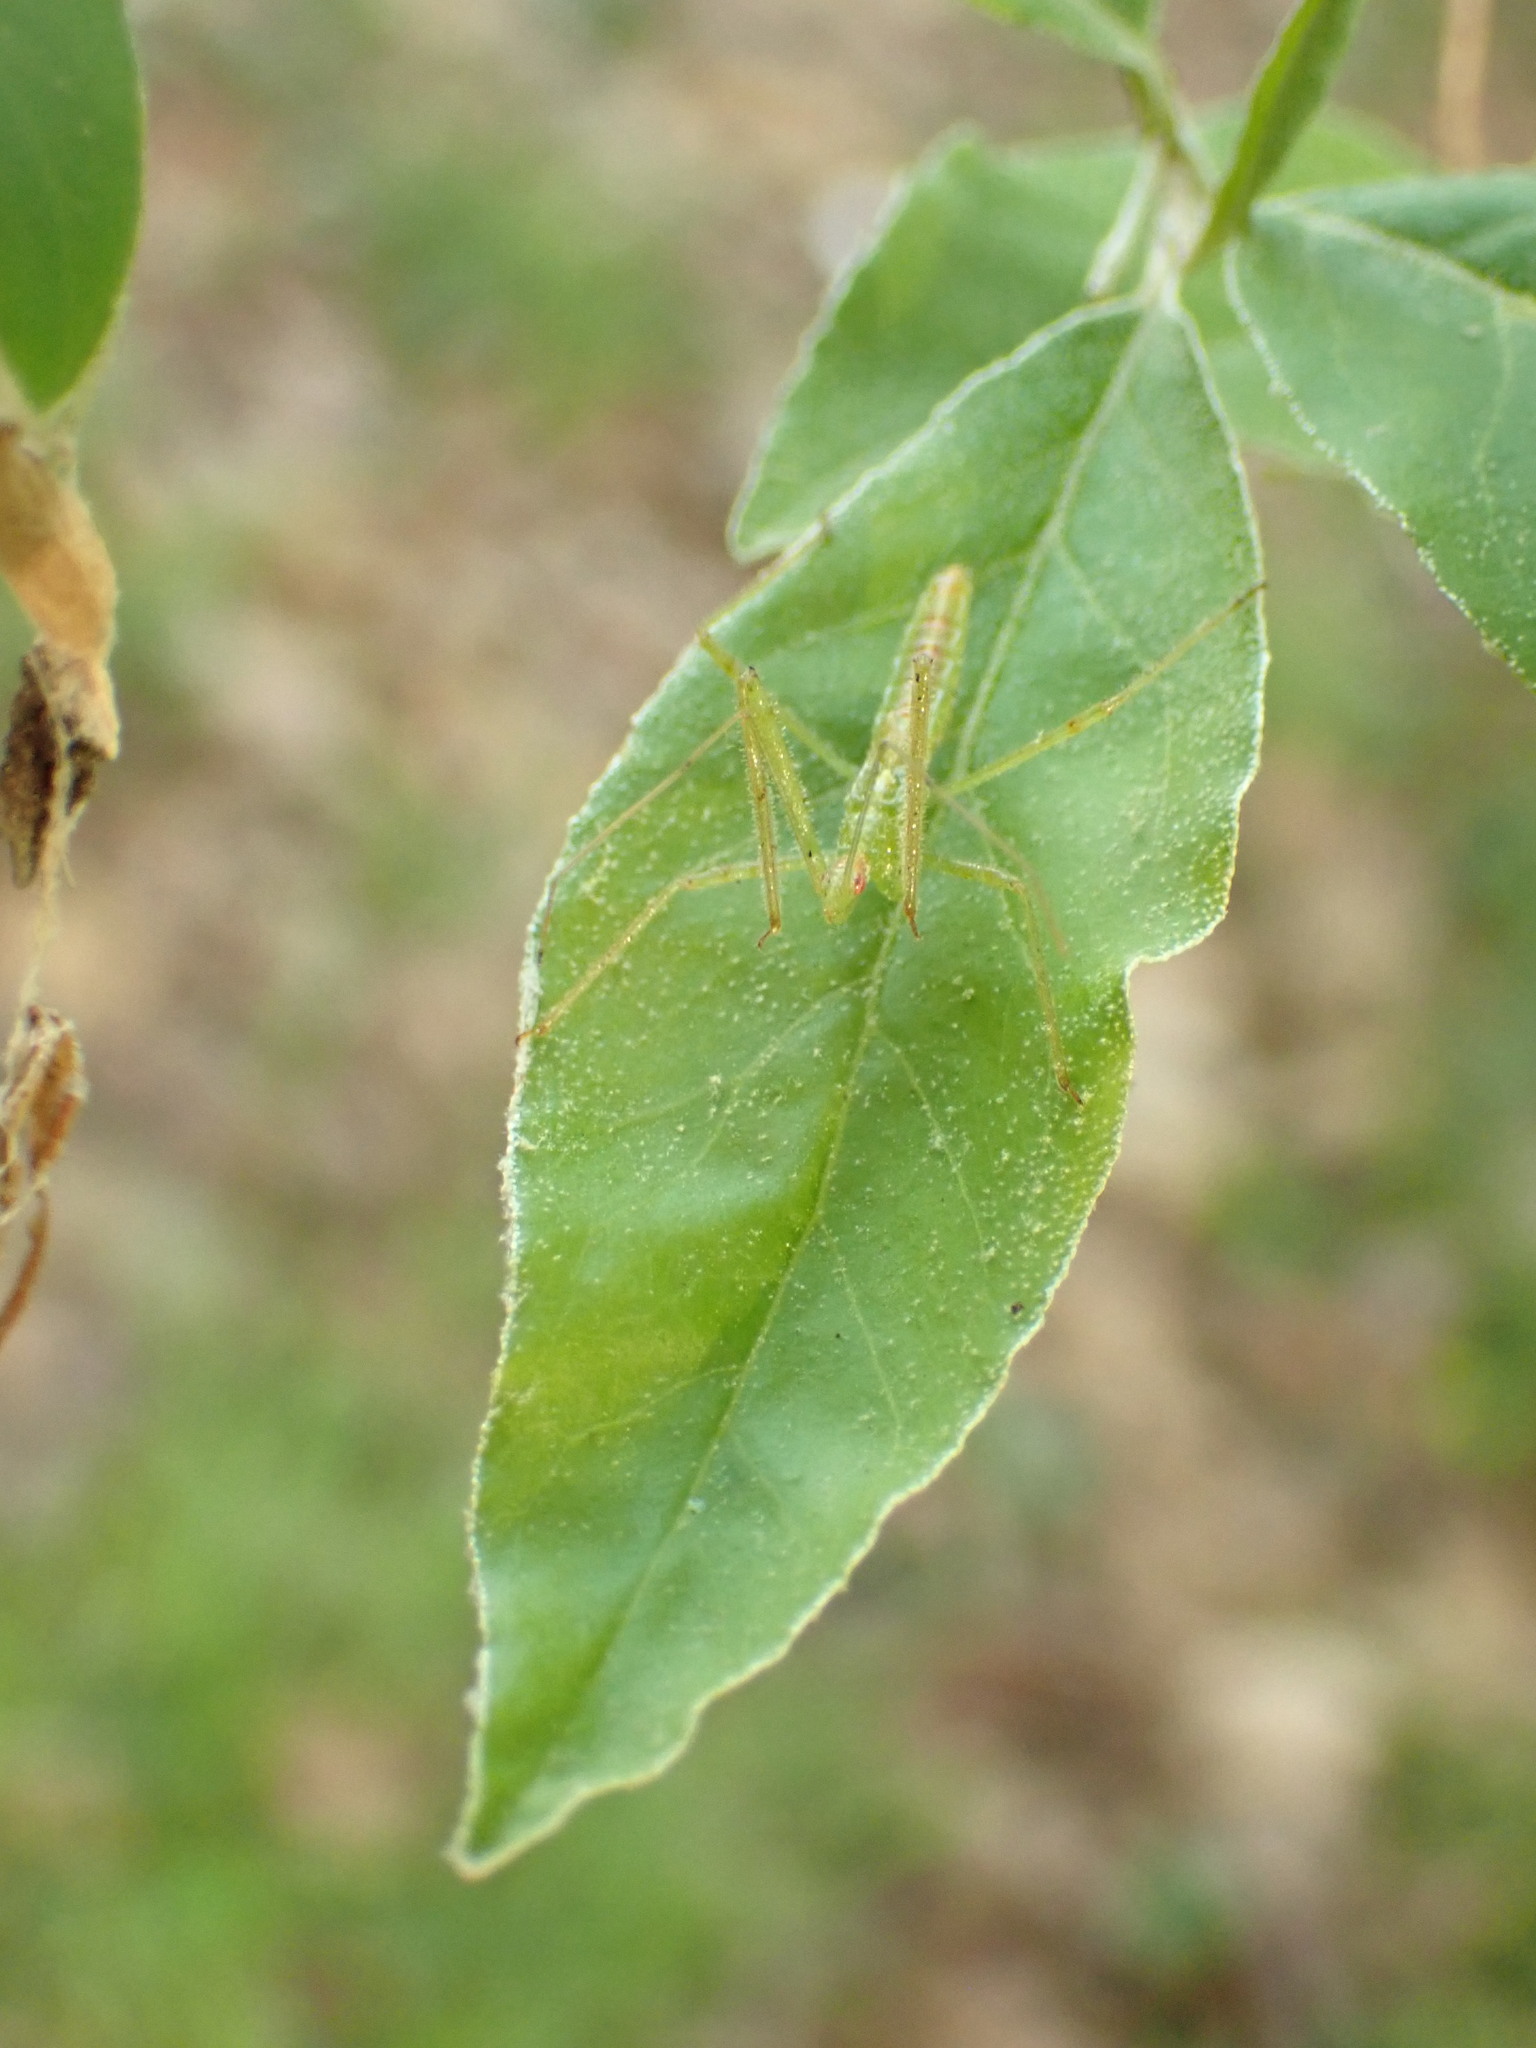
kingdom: Animalia
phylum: Arthropoda
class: Insecta
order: Hemiptera
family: Reduviidae
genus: Zelus
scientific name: Zelus luridus
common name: Pale green assassin bug
